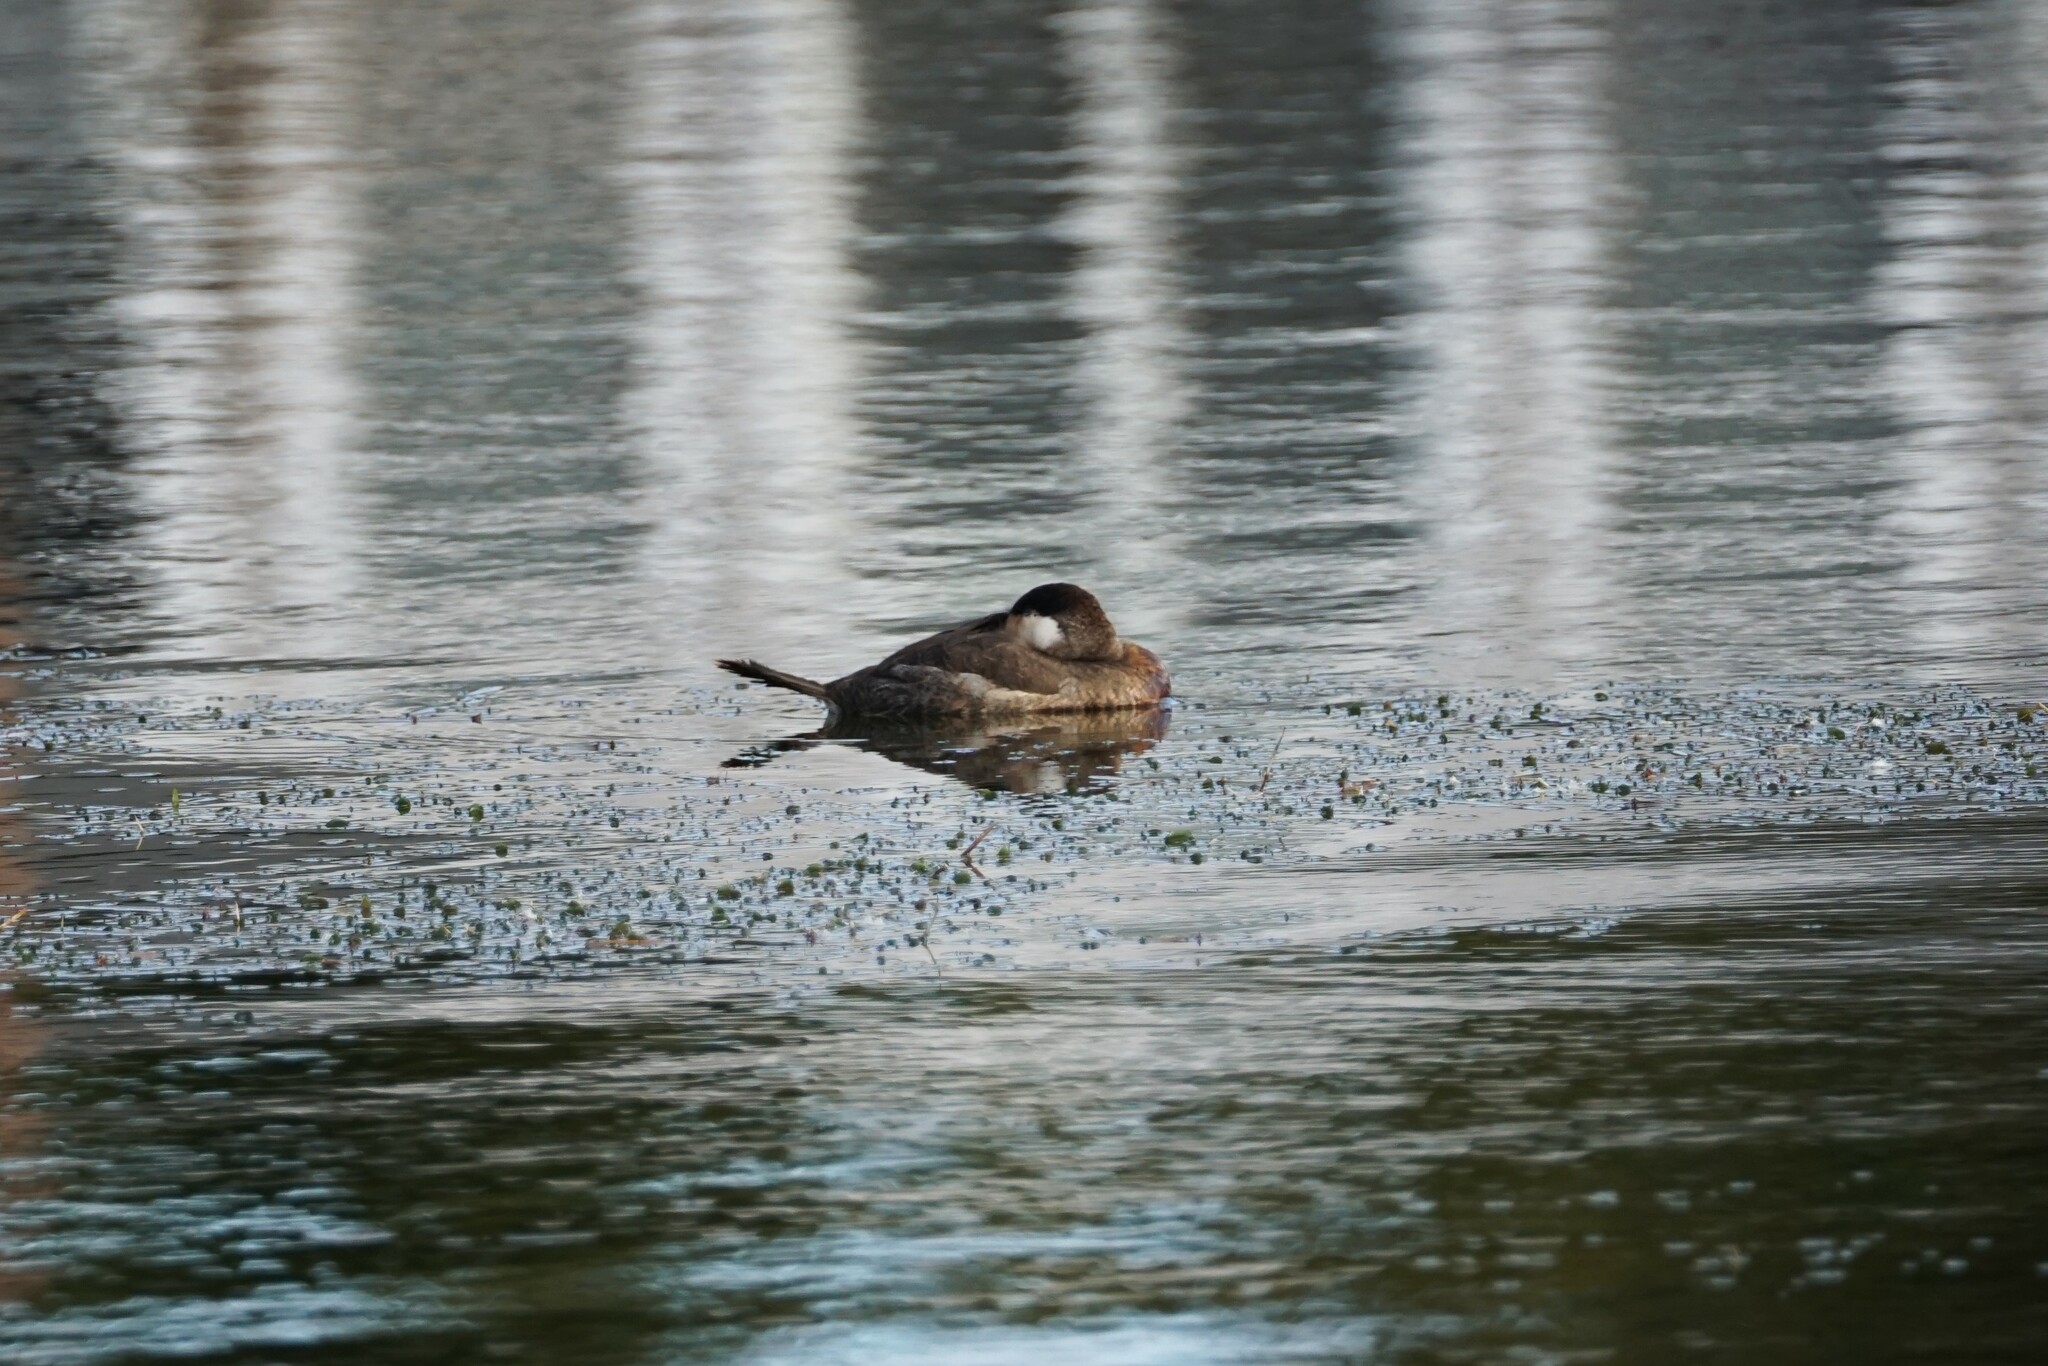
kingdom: Animalia
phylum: Chordata
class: Aves
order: Anseriformes
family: Anatidae
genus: Oxyura
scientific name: Oxyura jamaicensis
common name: Ruddy duck
